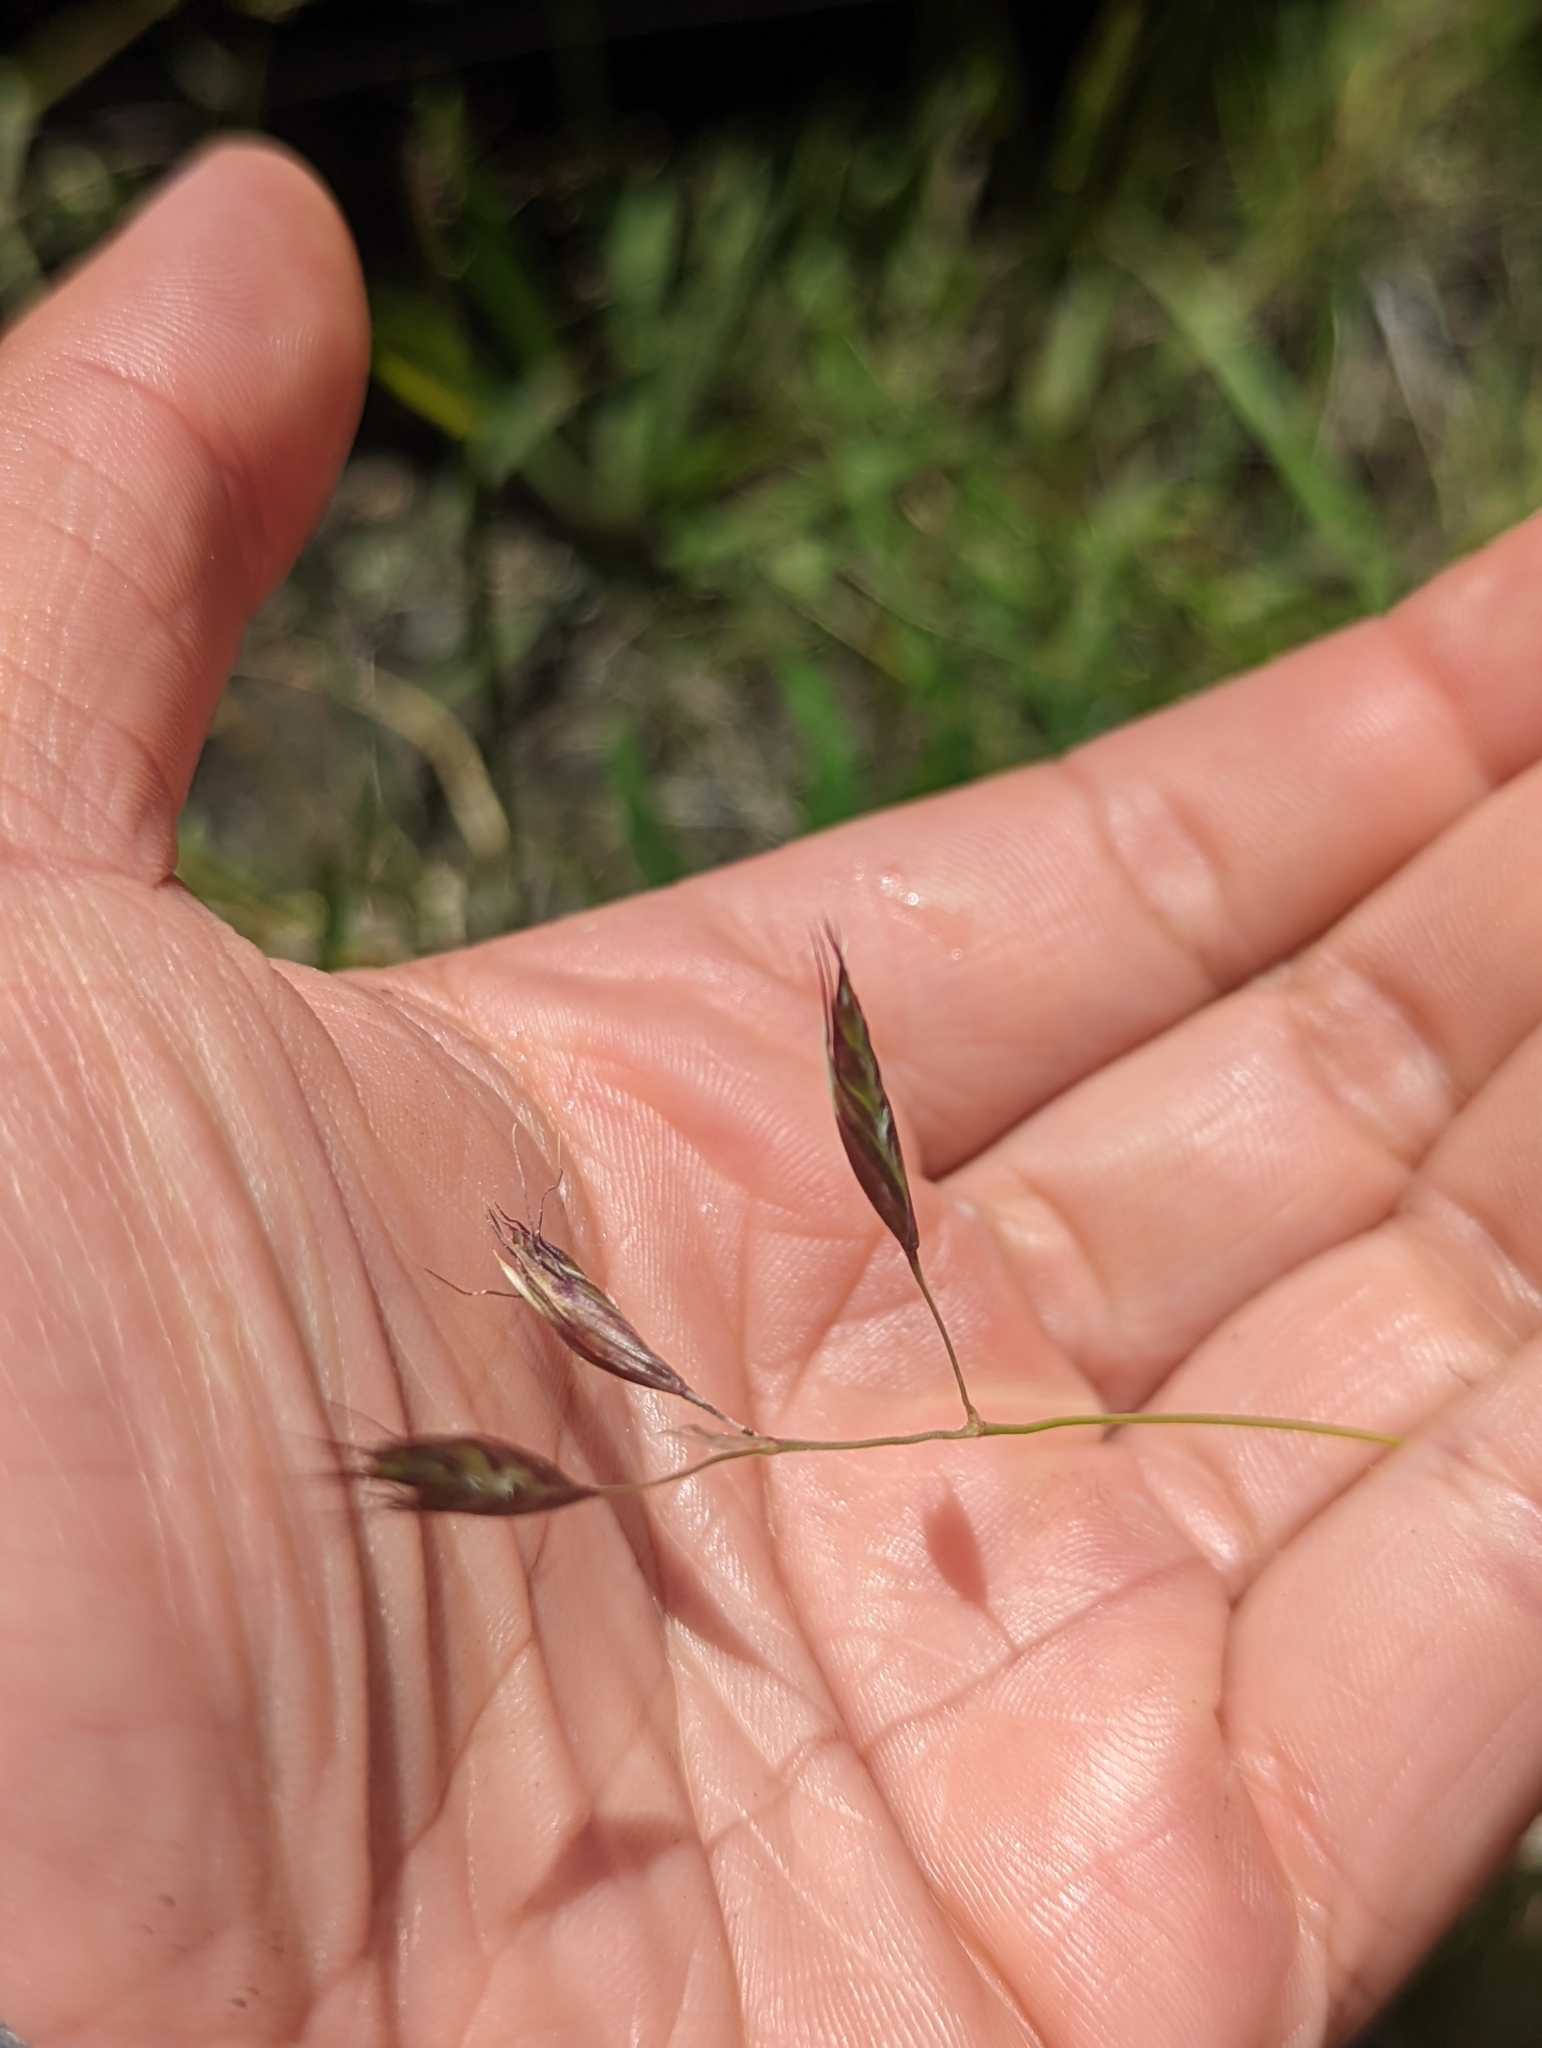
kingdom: Plantae
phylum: Tracheophyta
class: Liliopsida
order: Poales
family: Poaceae
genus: Danthonia
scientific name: Danthonia californica
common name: California oat grass
